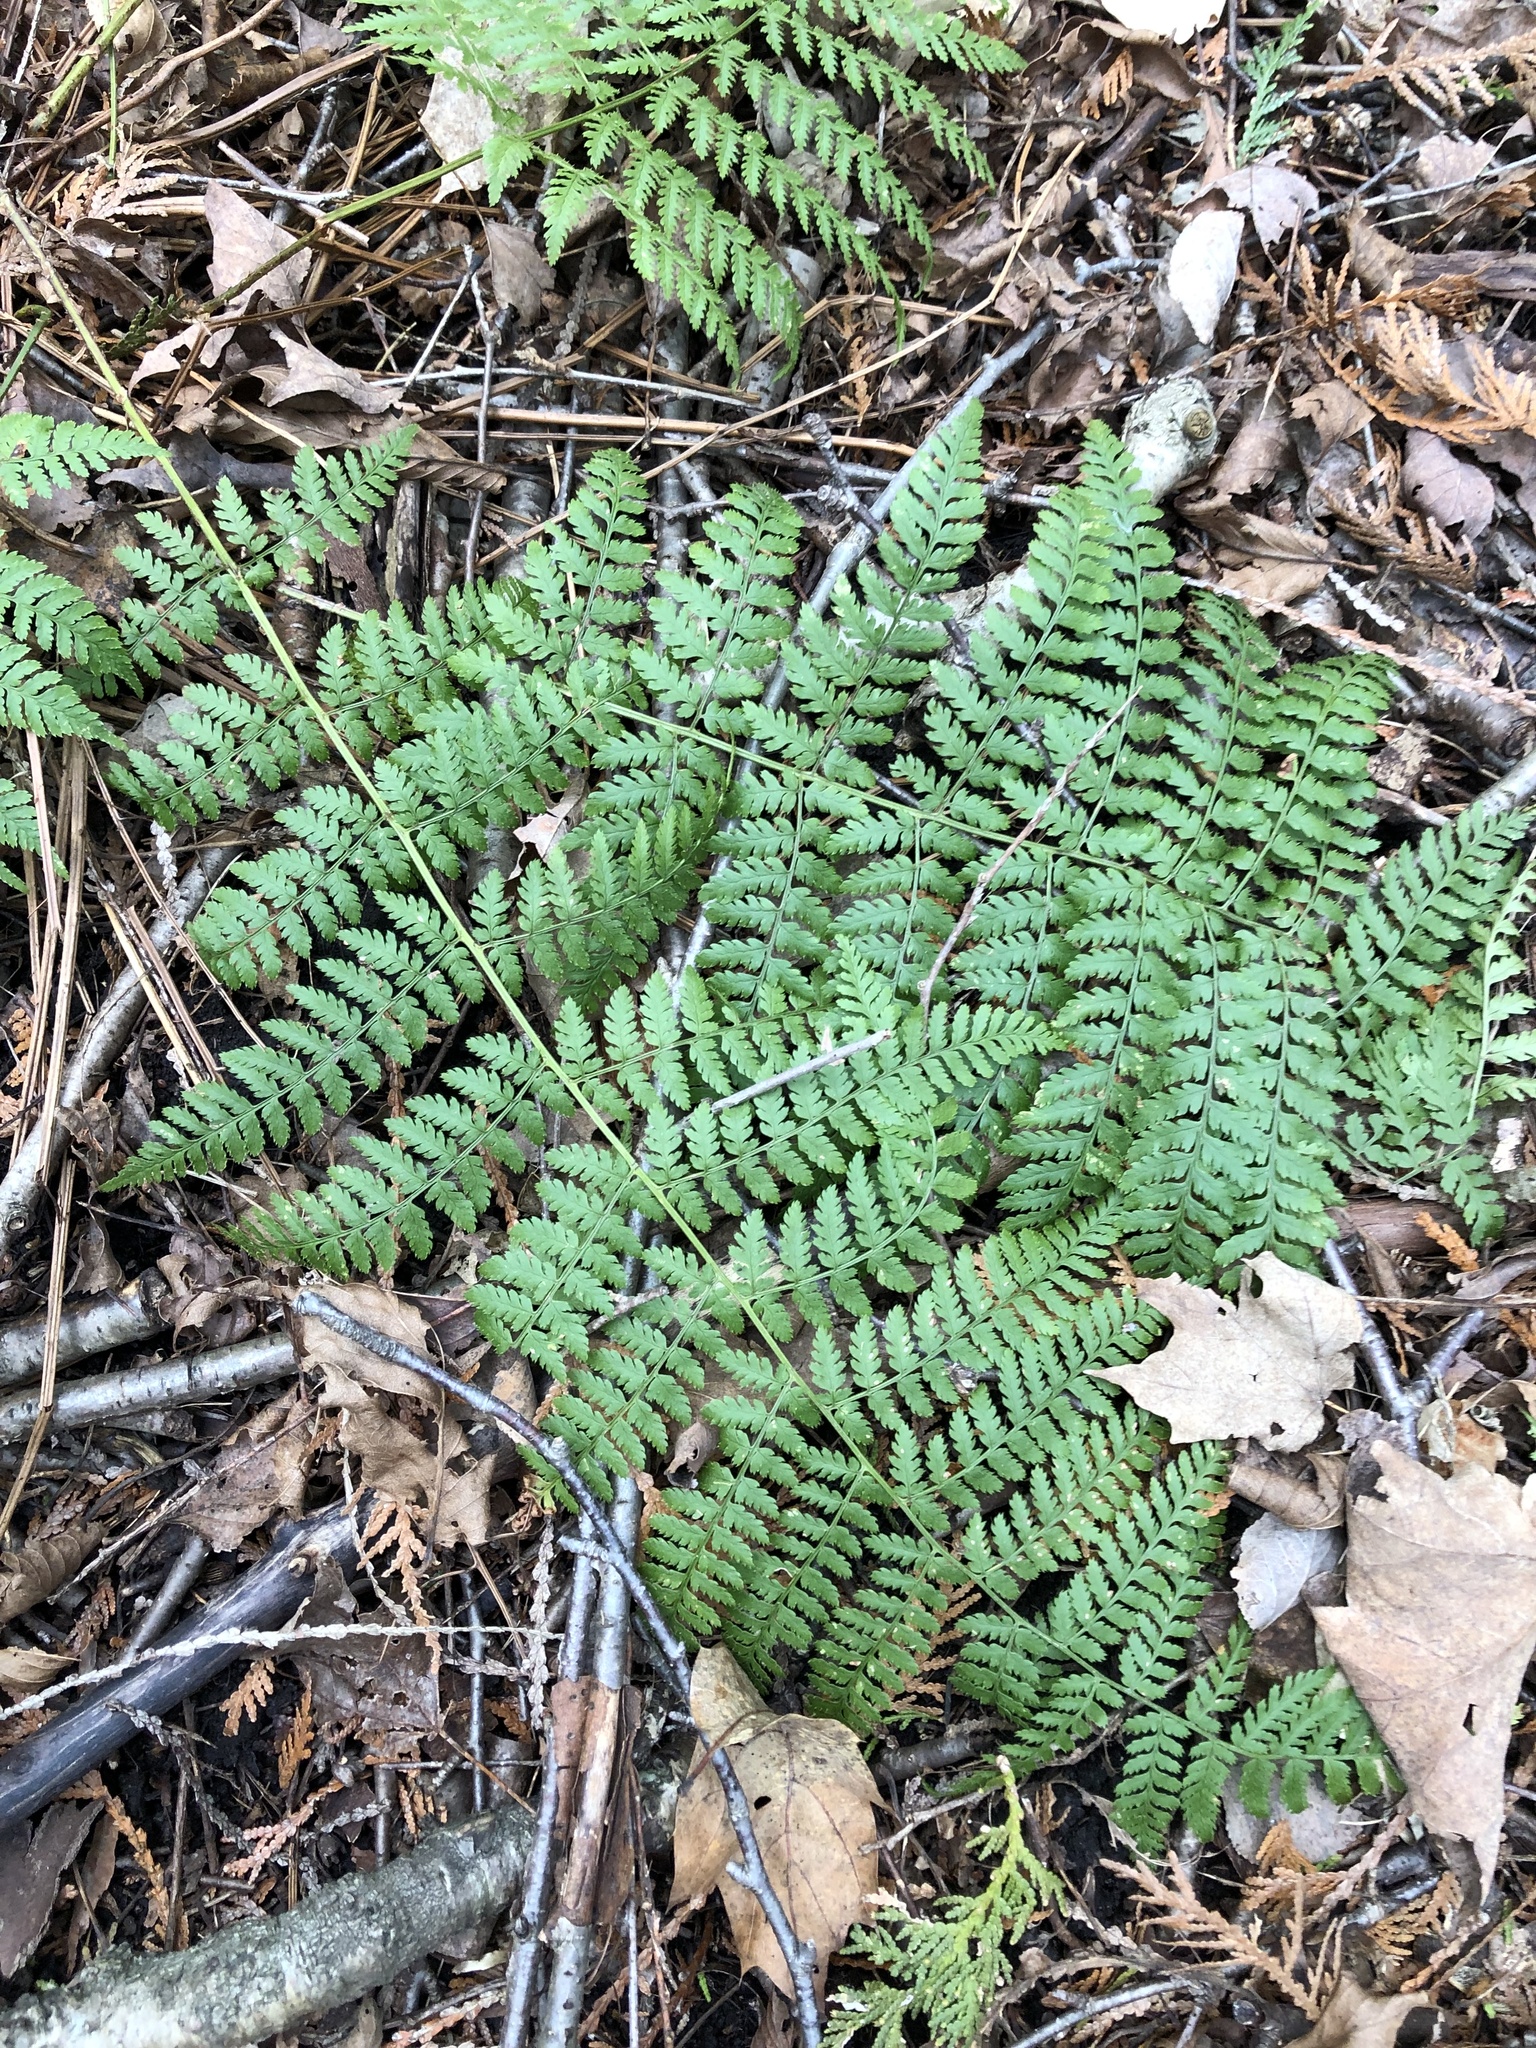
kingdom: Plantae
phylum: Tracheophyta
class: Polypodiopsida
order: Polypodiales
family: Dryopteridaceae
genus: Dryopteris
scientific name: Dryopteris intermedia
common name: Evergreen wood fern
